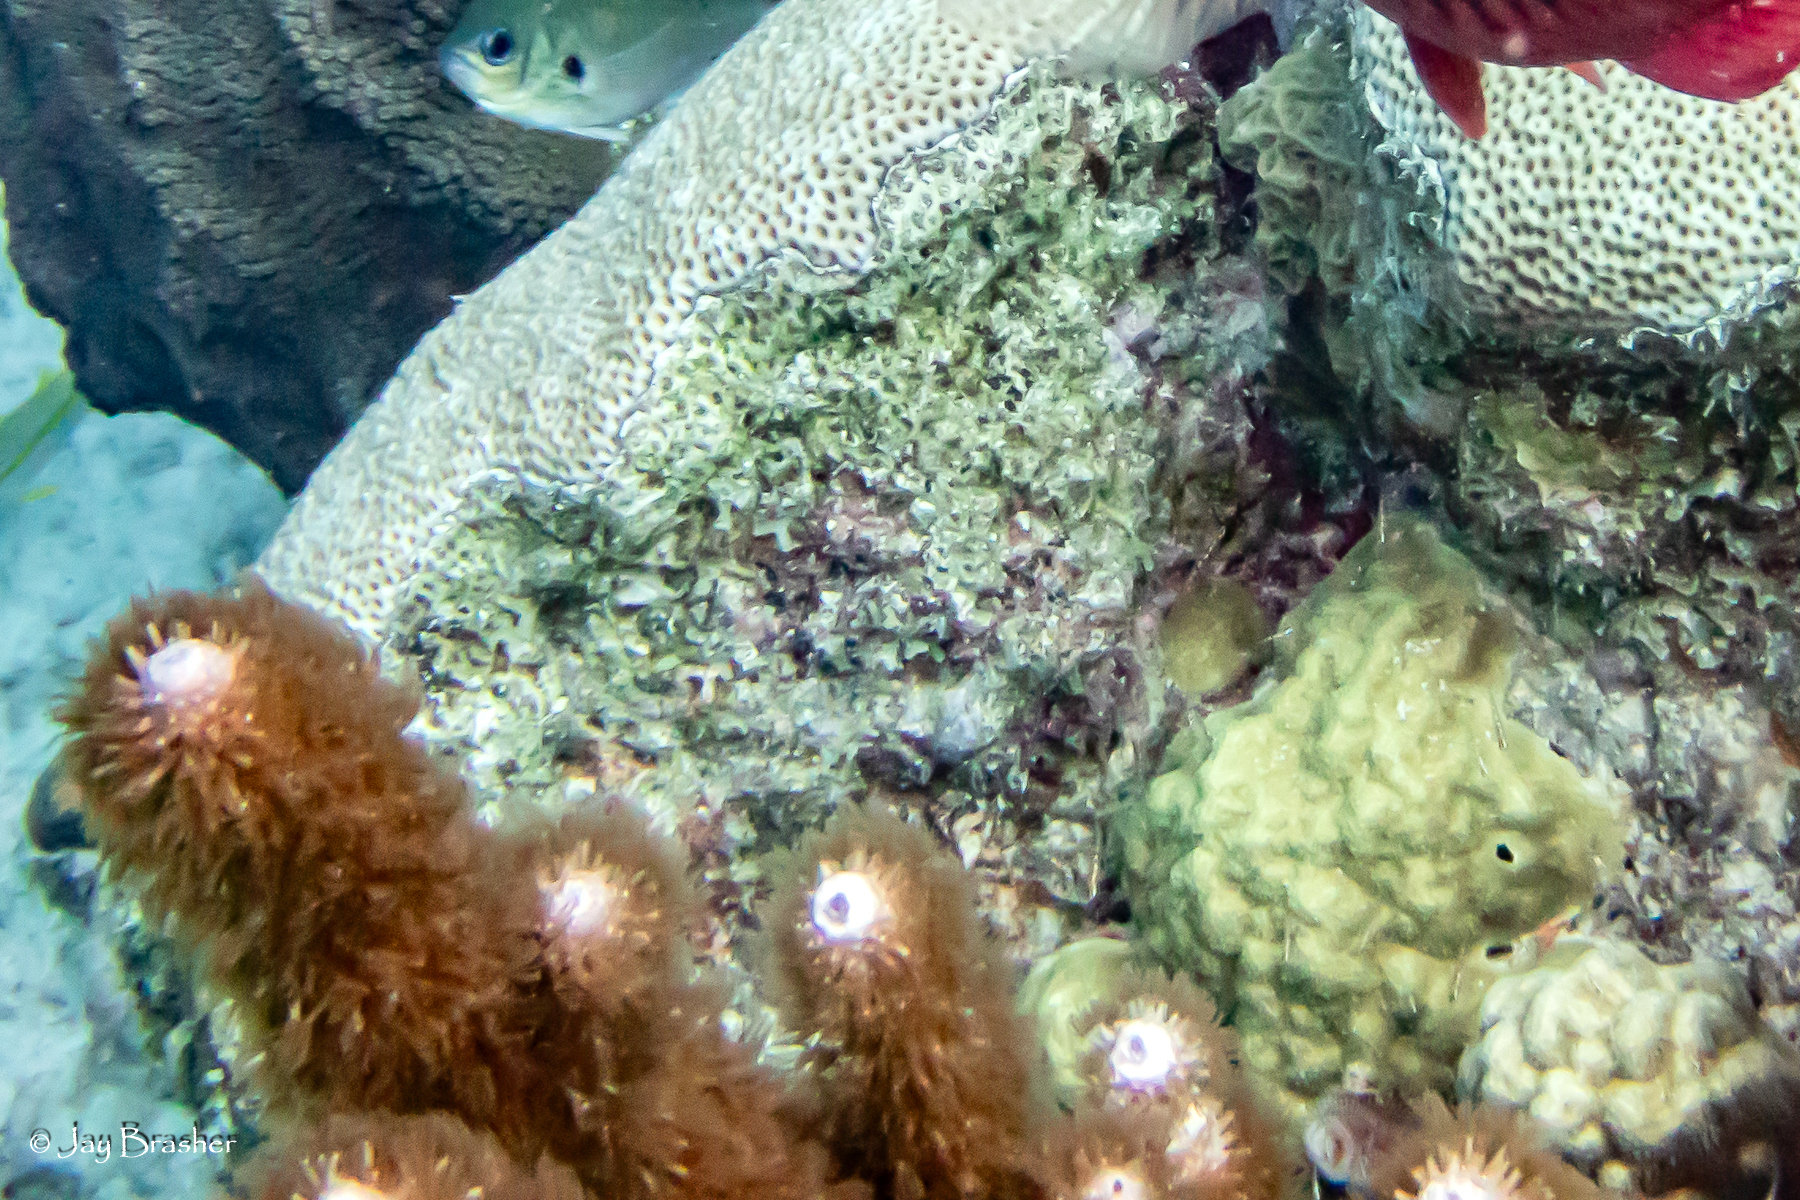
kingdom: Animalia
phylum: Cnidaria
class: Anthozoa
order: Scleractinia
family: Poritidae
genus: Porites
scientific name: Porites astreoides
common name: Mustard hill coral
